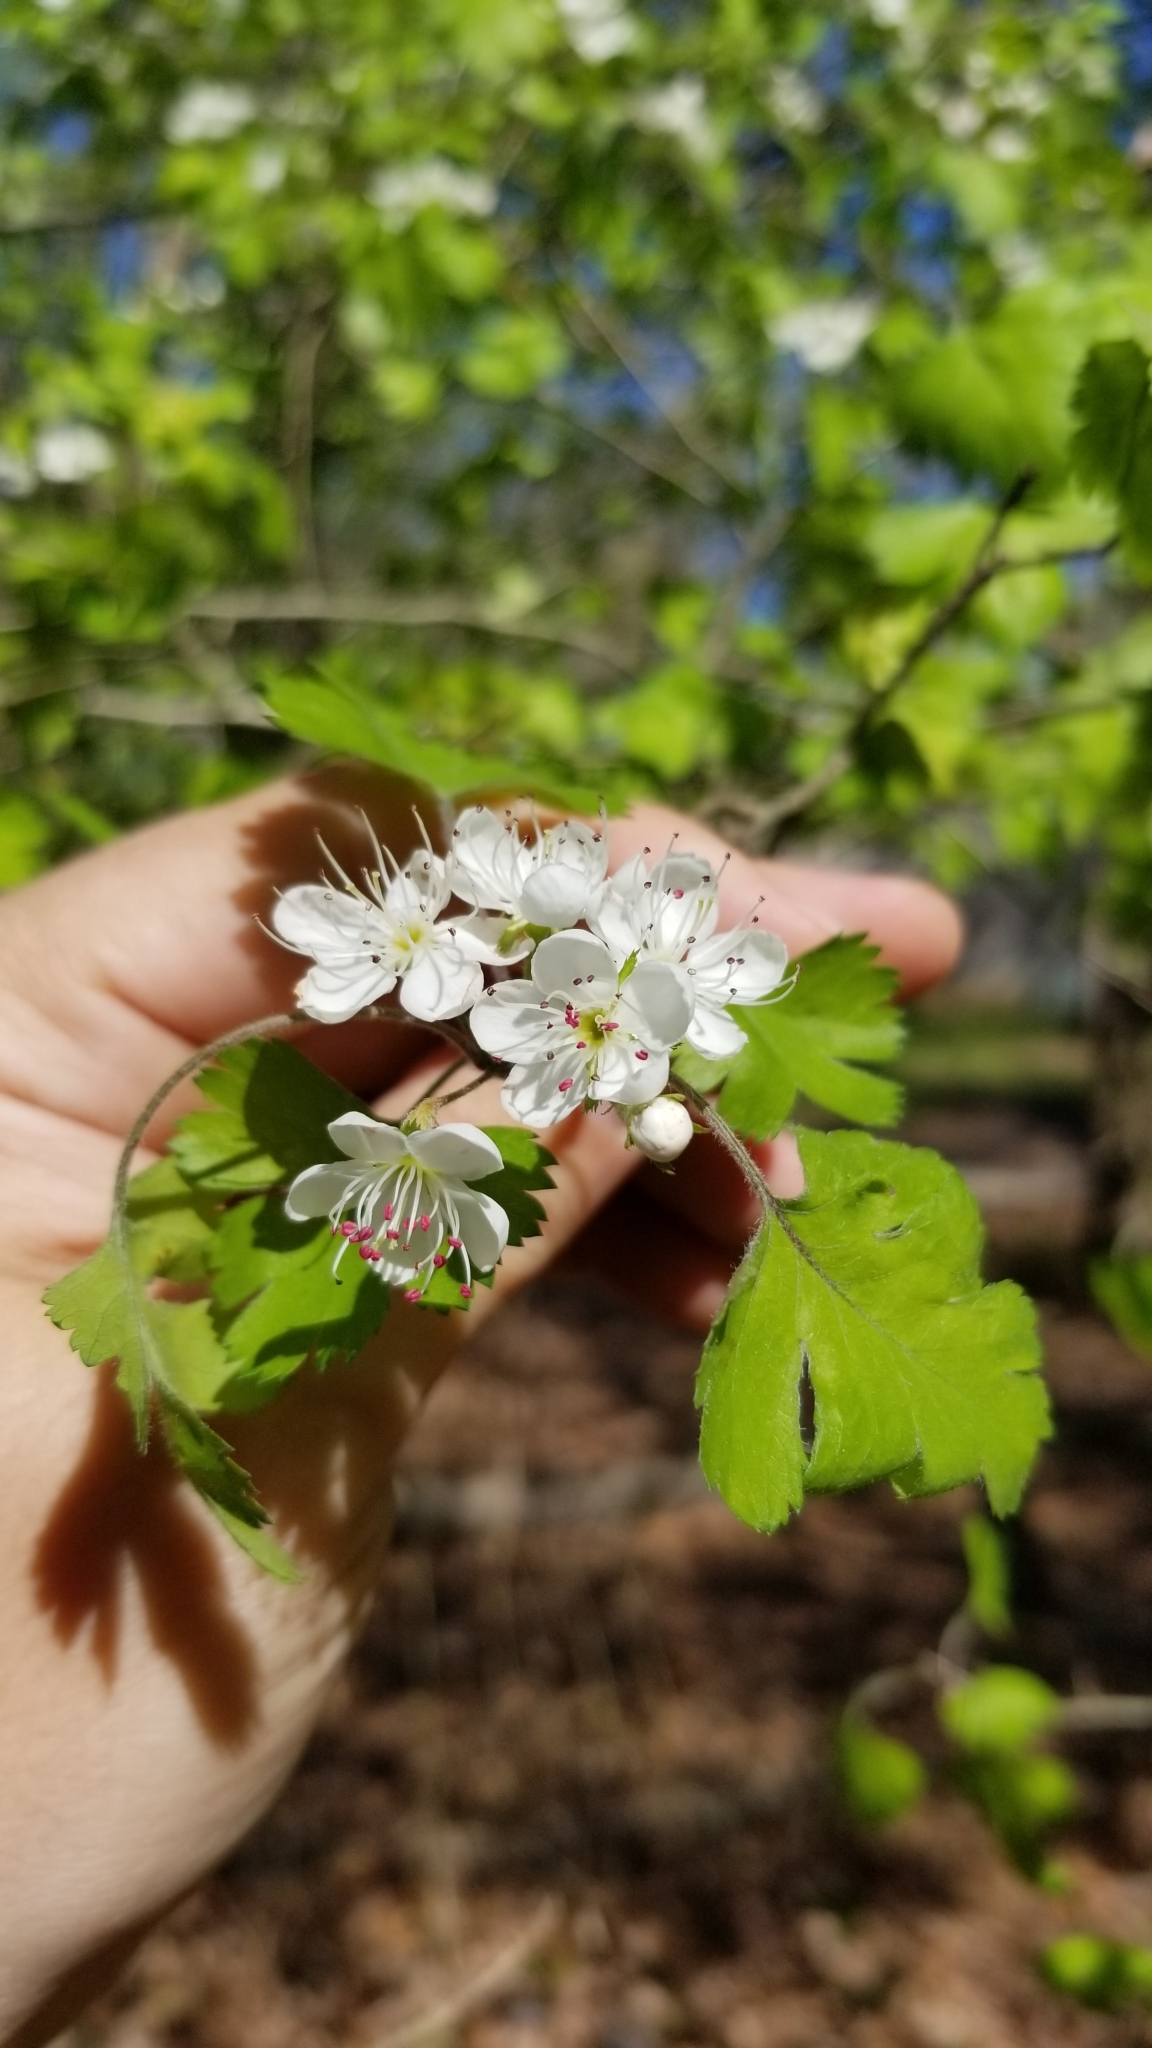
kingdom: Plantae
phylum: Tracheophyta
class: Magnoliopsida
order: Rosales
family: Rosaceae
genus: Crataegus
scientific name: Crataegus marshallii
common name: Parsley-hawthorn
